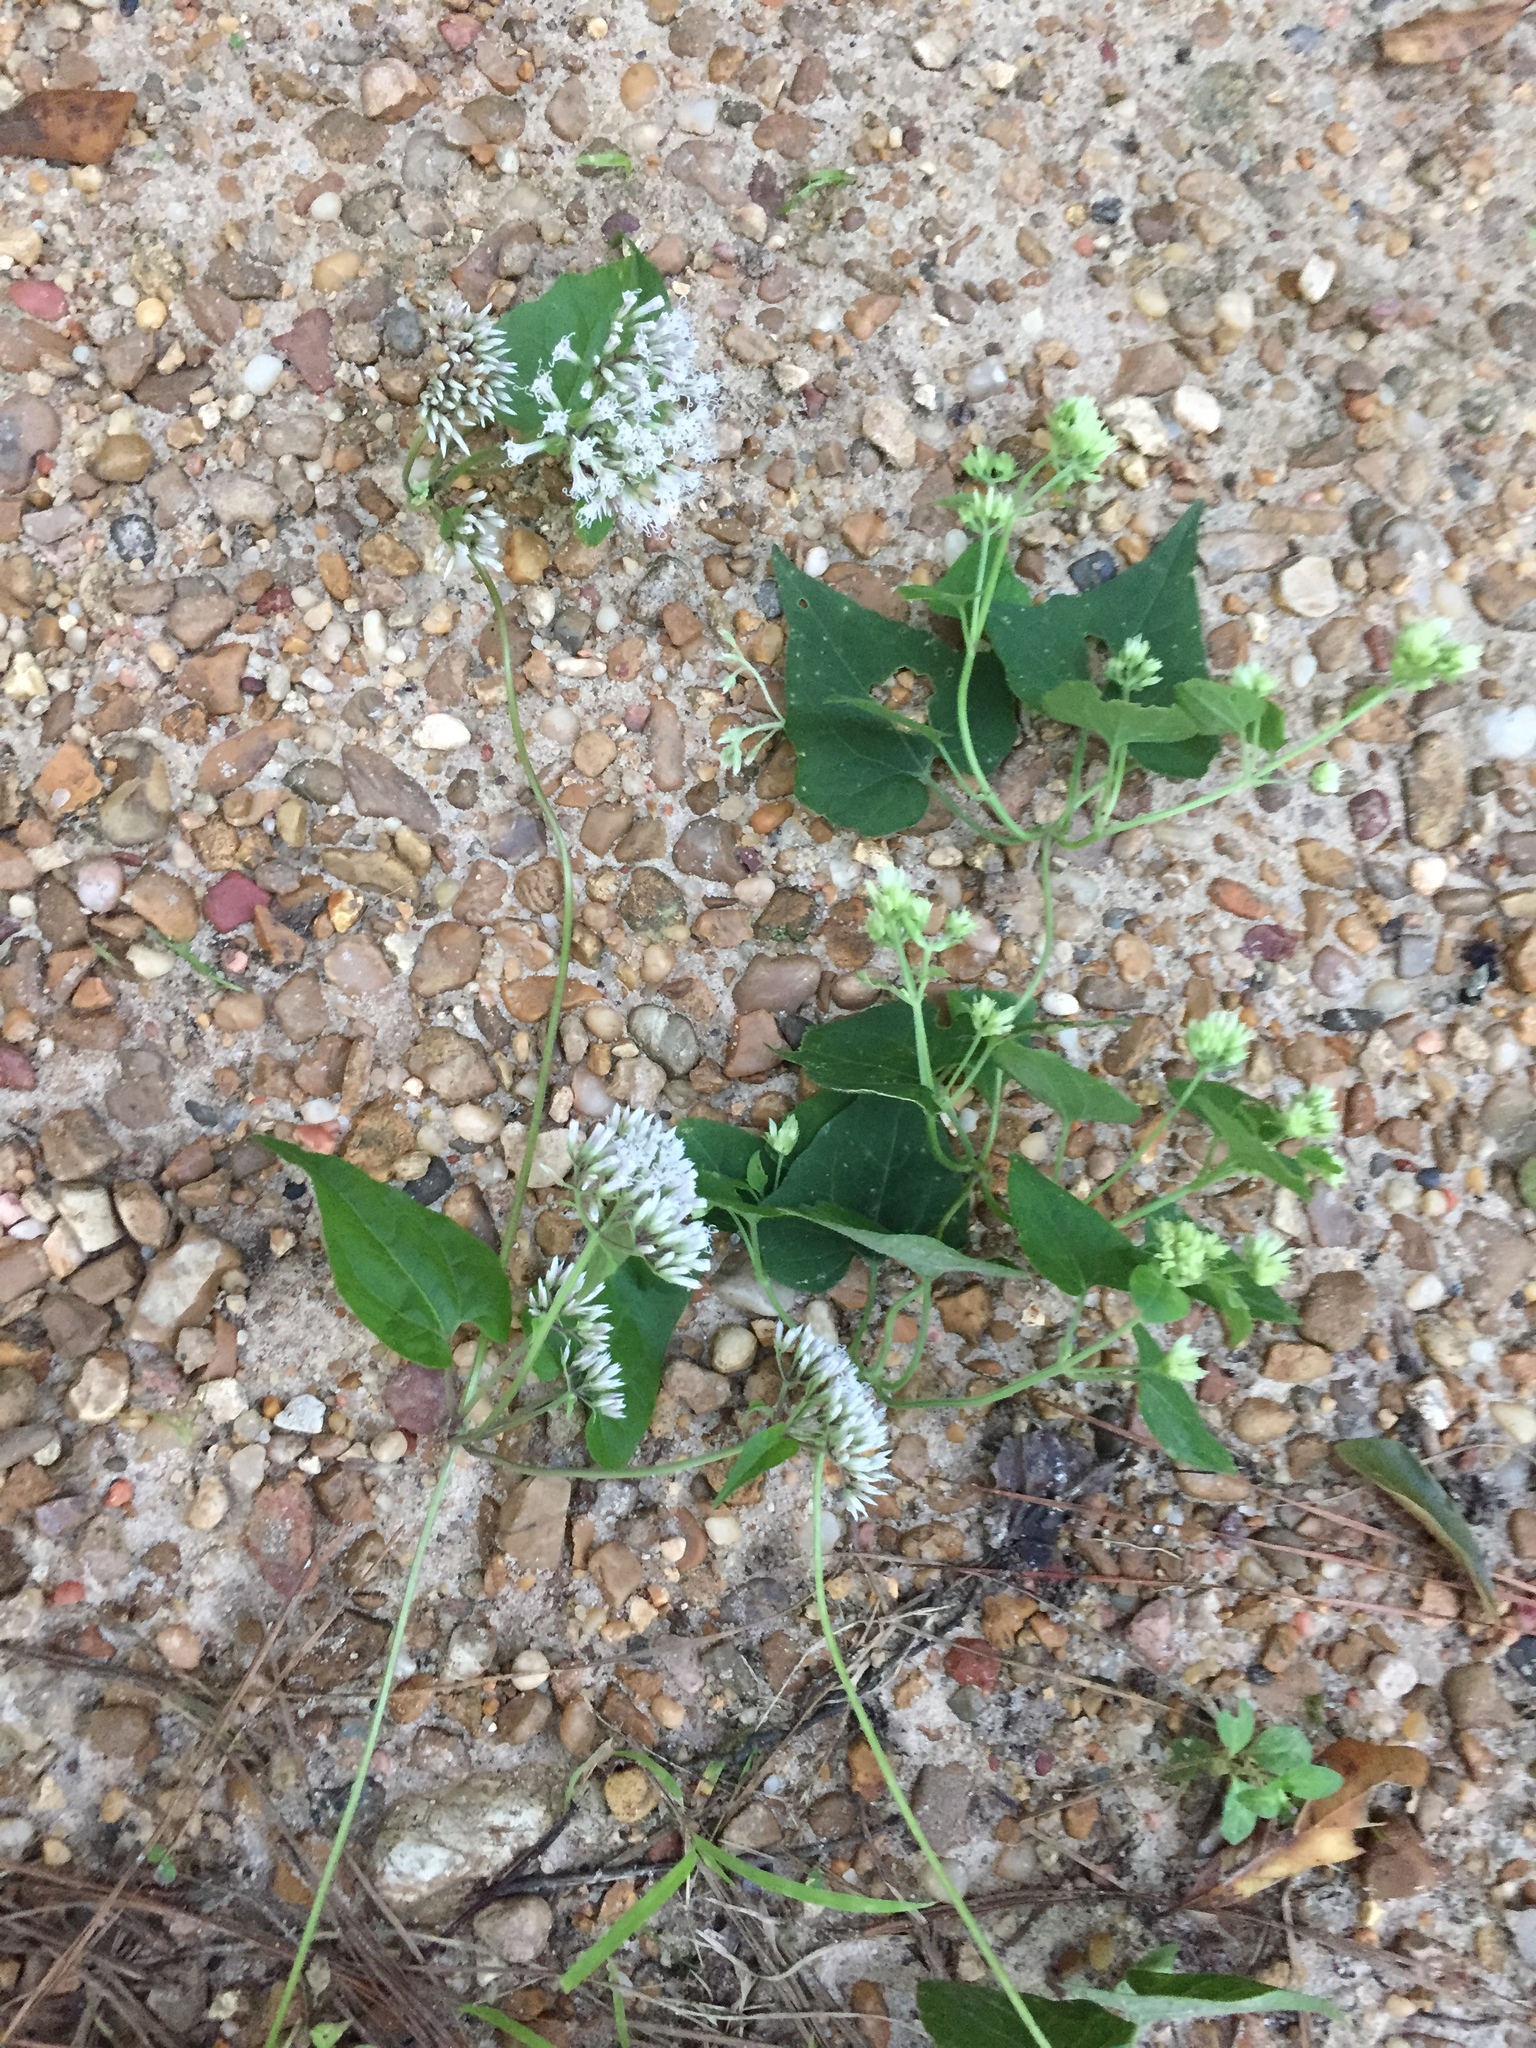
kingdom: Plantae
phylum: Tracheophyta
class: Magnoliopsida
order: Asterales
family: Asteraceae
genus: Mikania
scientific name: Mikania cordifolia
